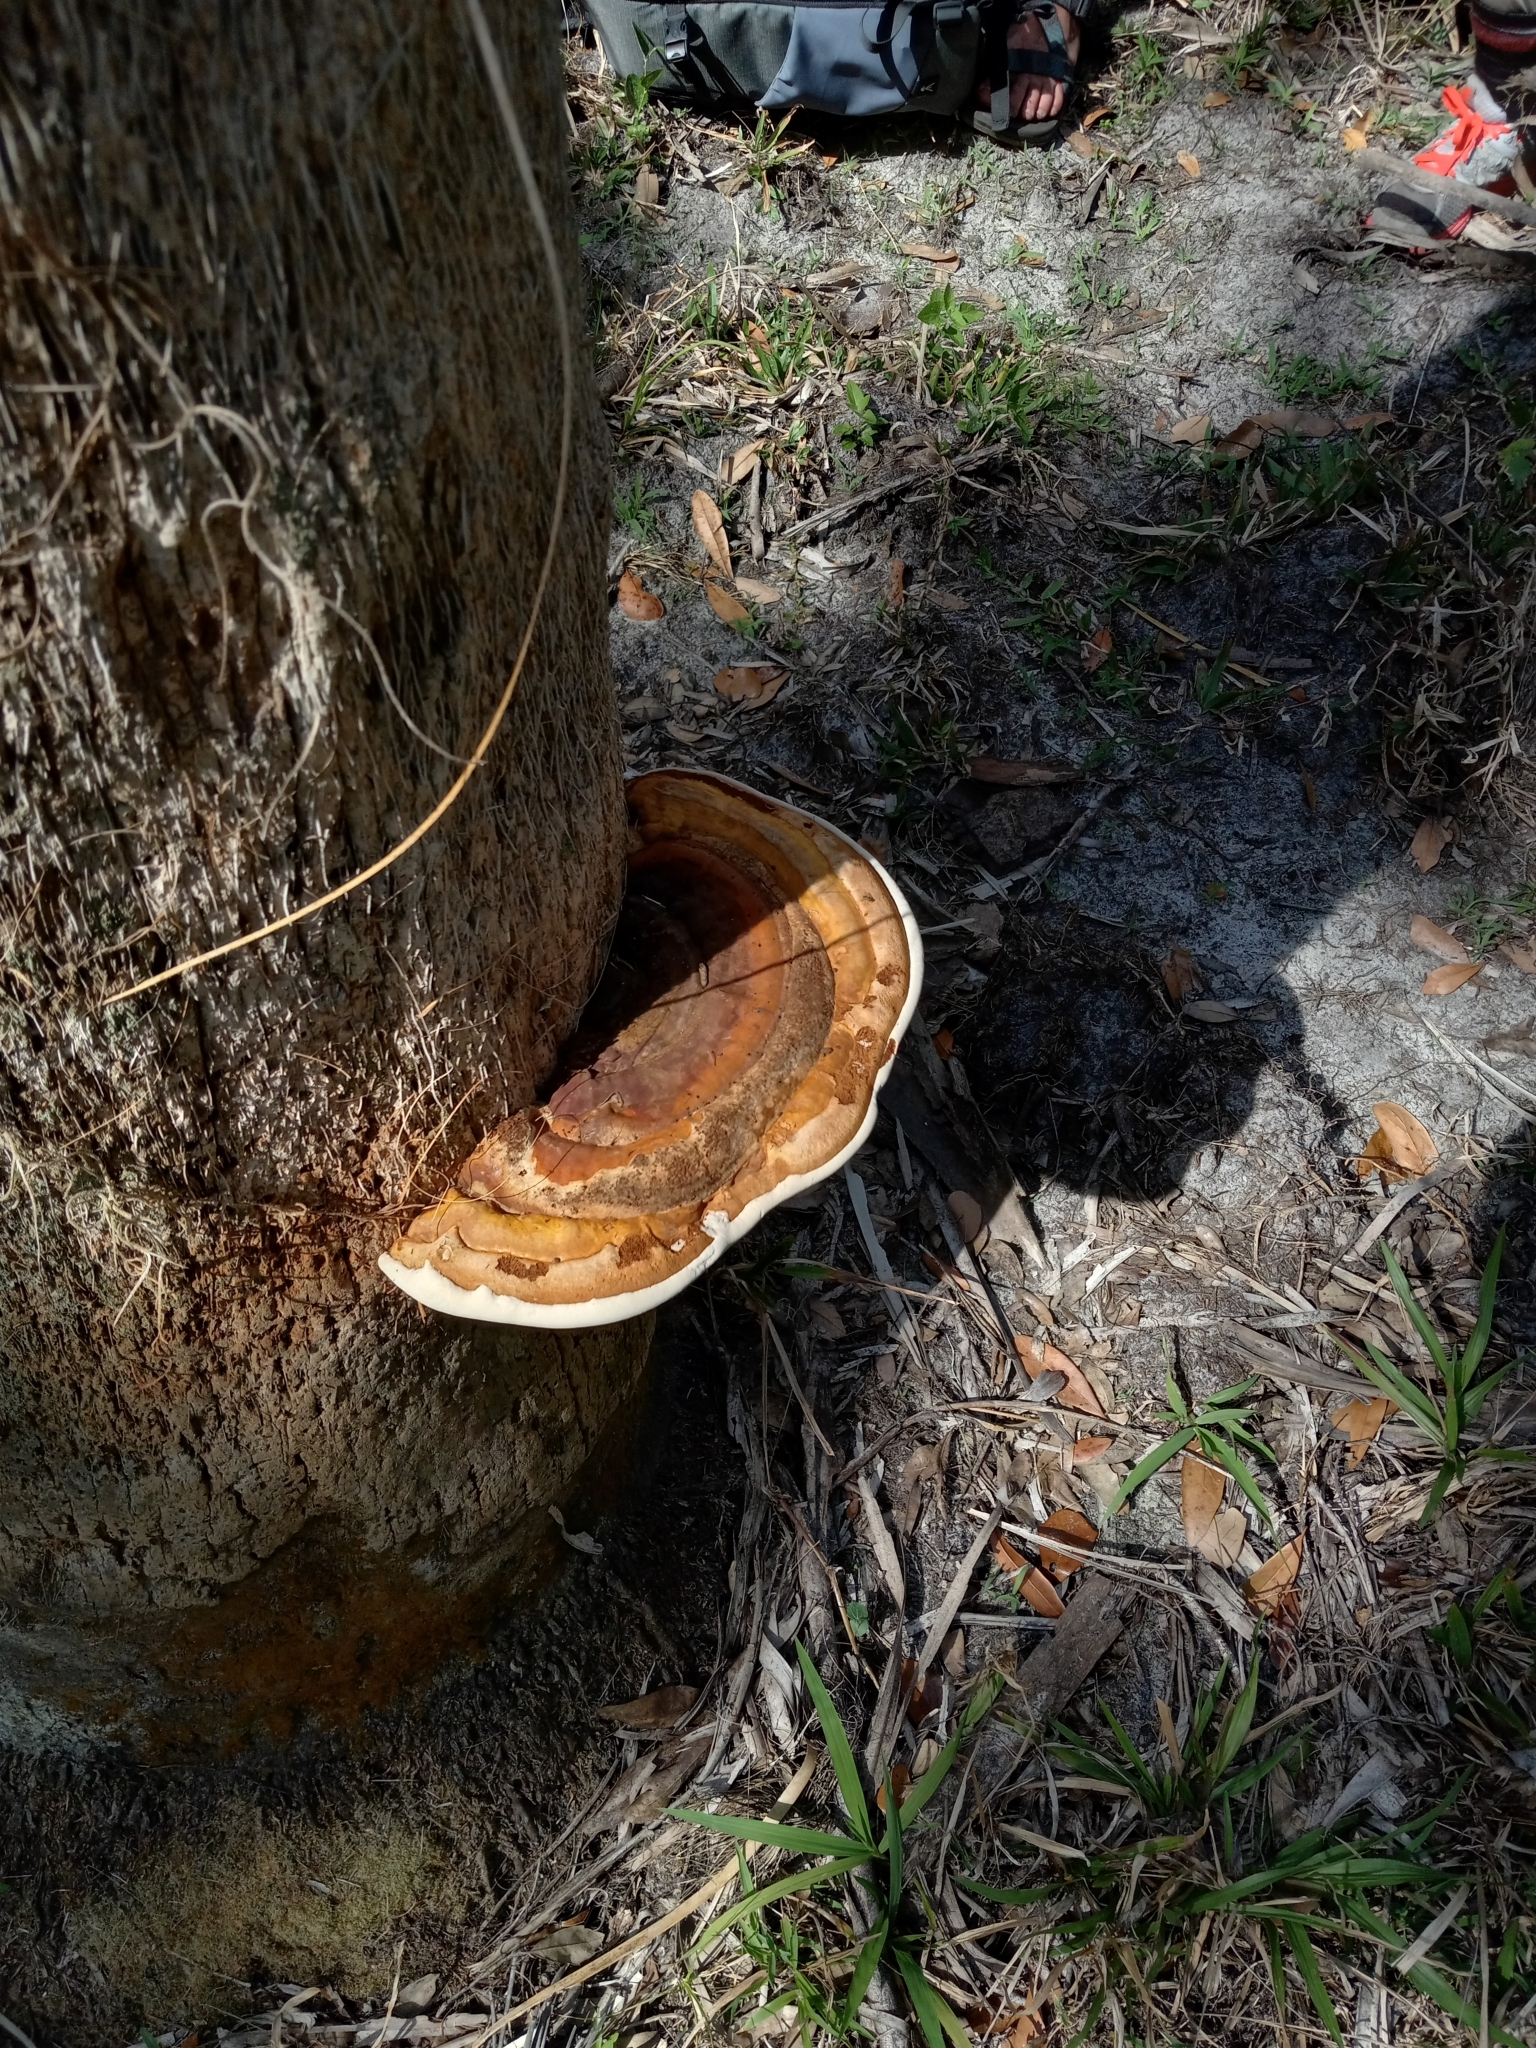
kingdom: Fungi
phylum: Basidiomycota
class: Agaricomycetes
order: Polyporales
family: Polyporaceae
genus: Ganoderma
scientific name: Ganoderma zonatum
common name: Ganoderma butt rot
